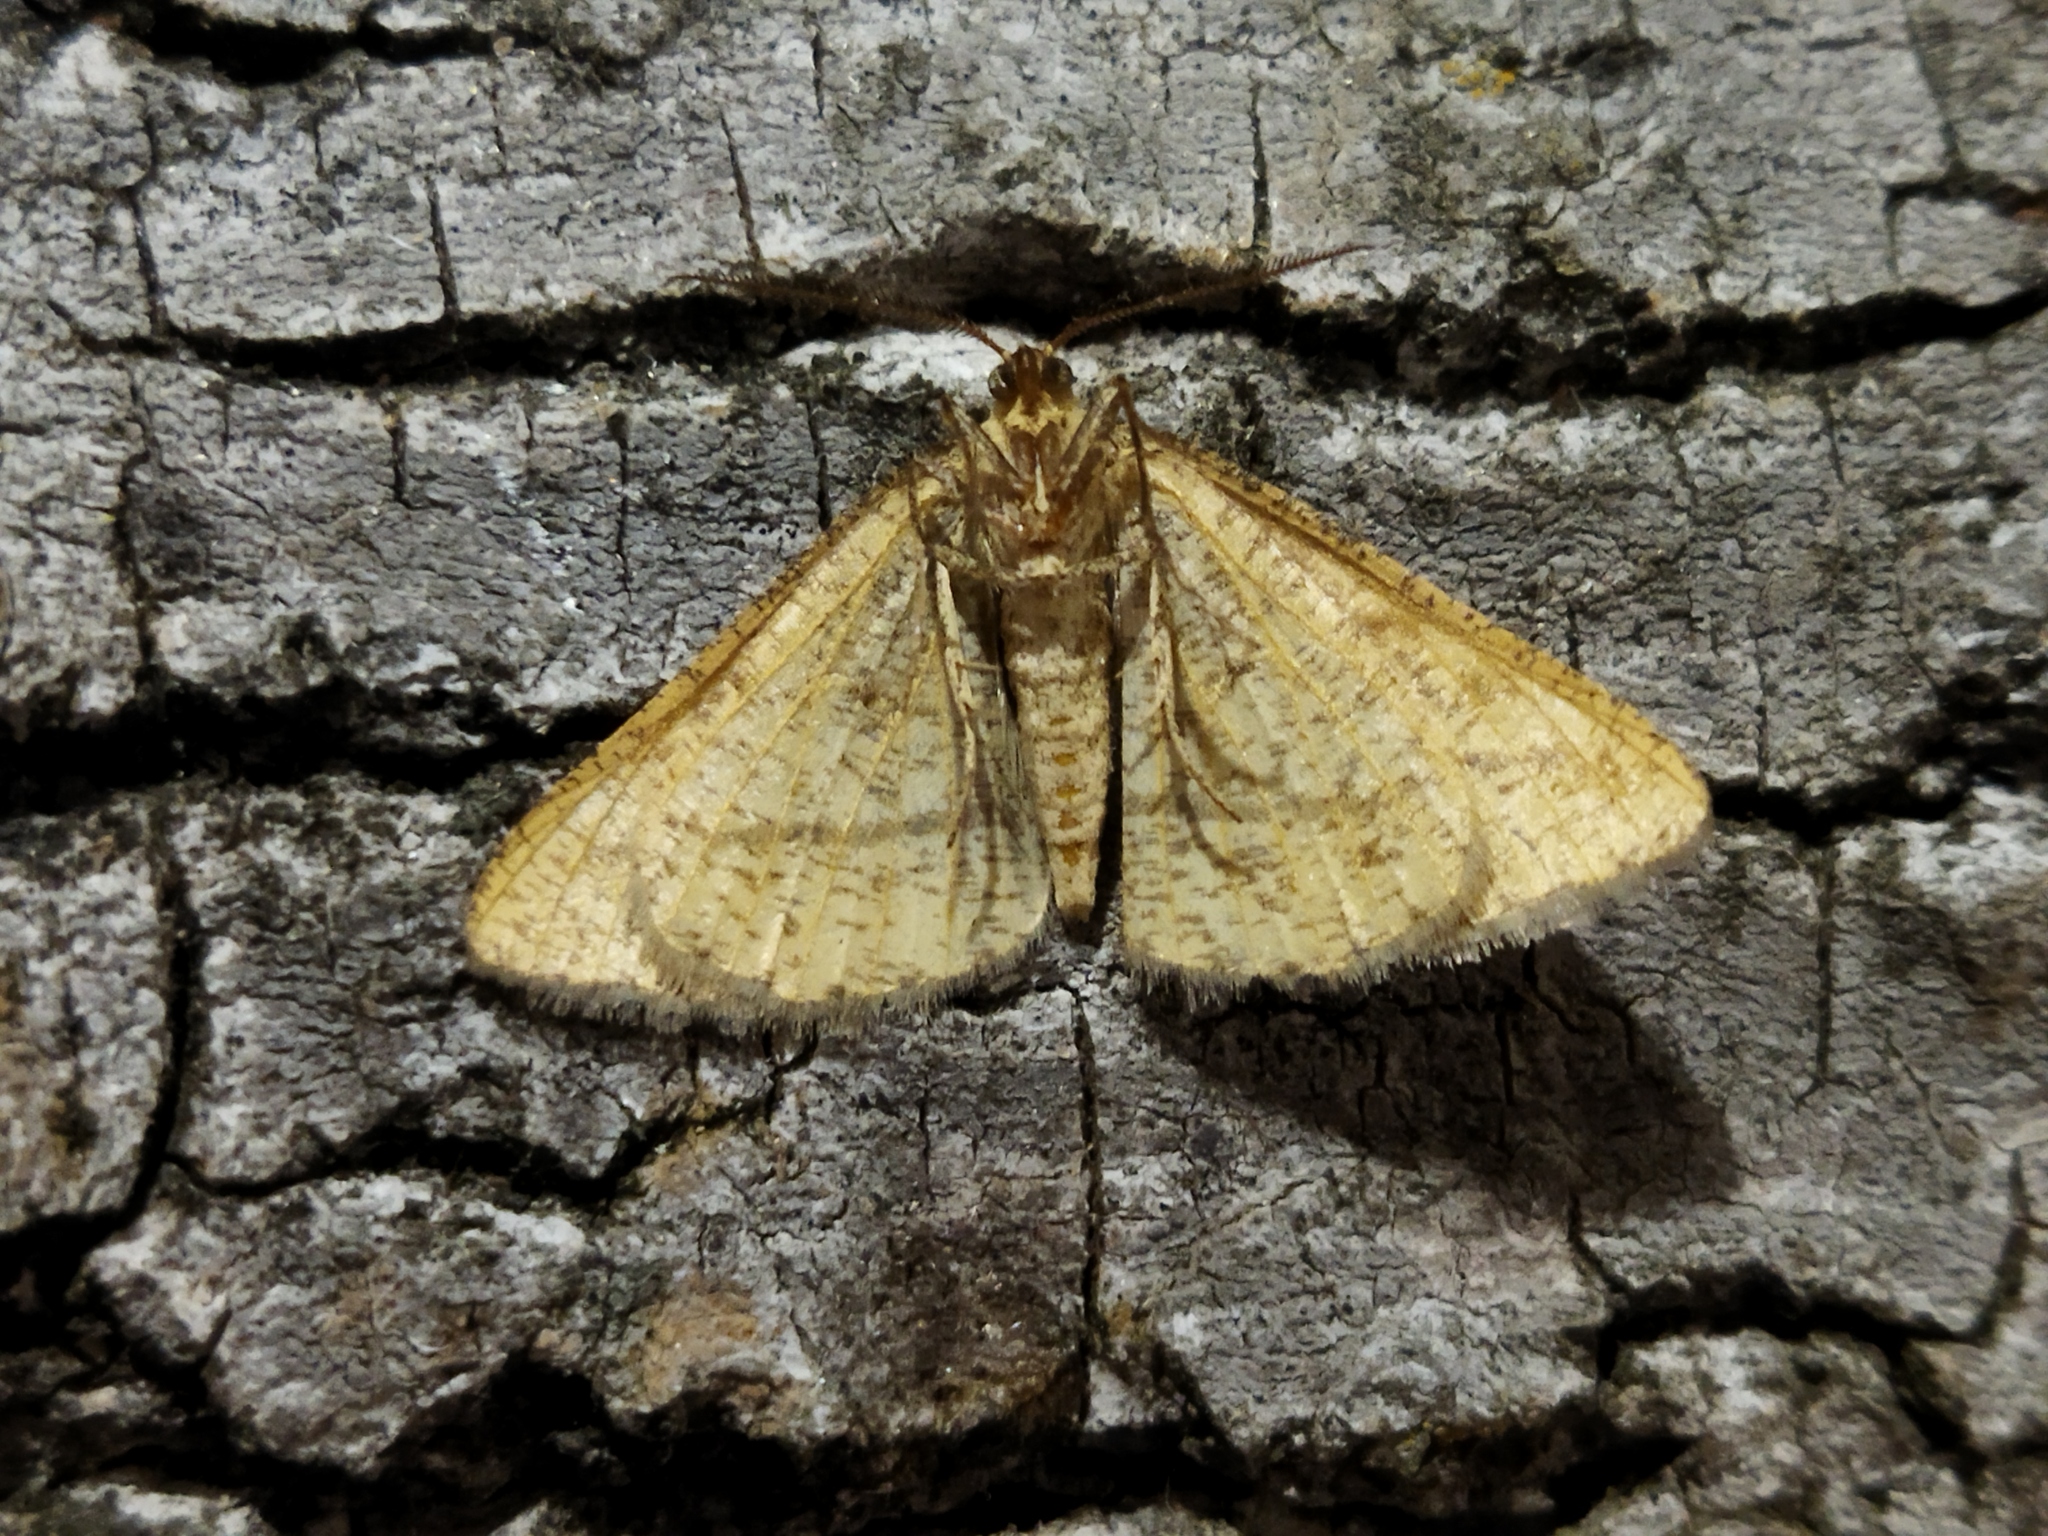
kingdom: Animalia
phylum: Arthropoda
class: Insecta
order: Lepidoptera
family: Geometridae
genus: Tephrina
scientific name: Tephrina arenacearia
